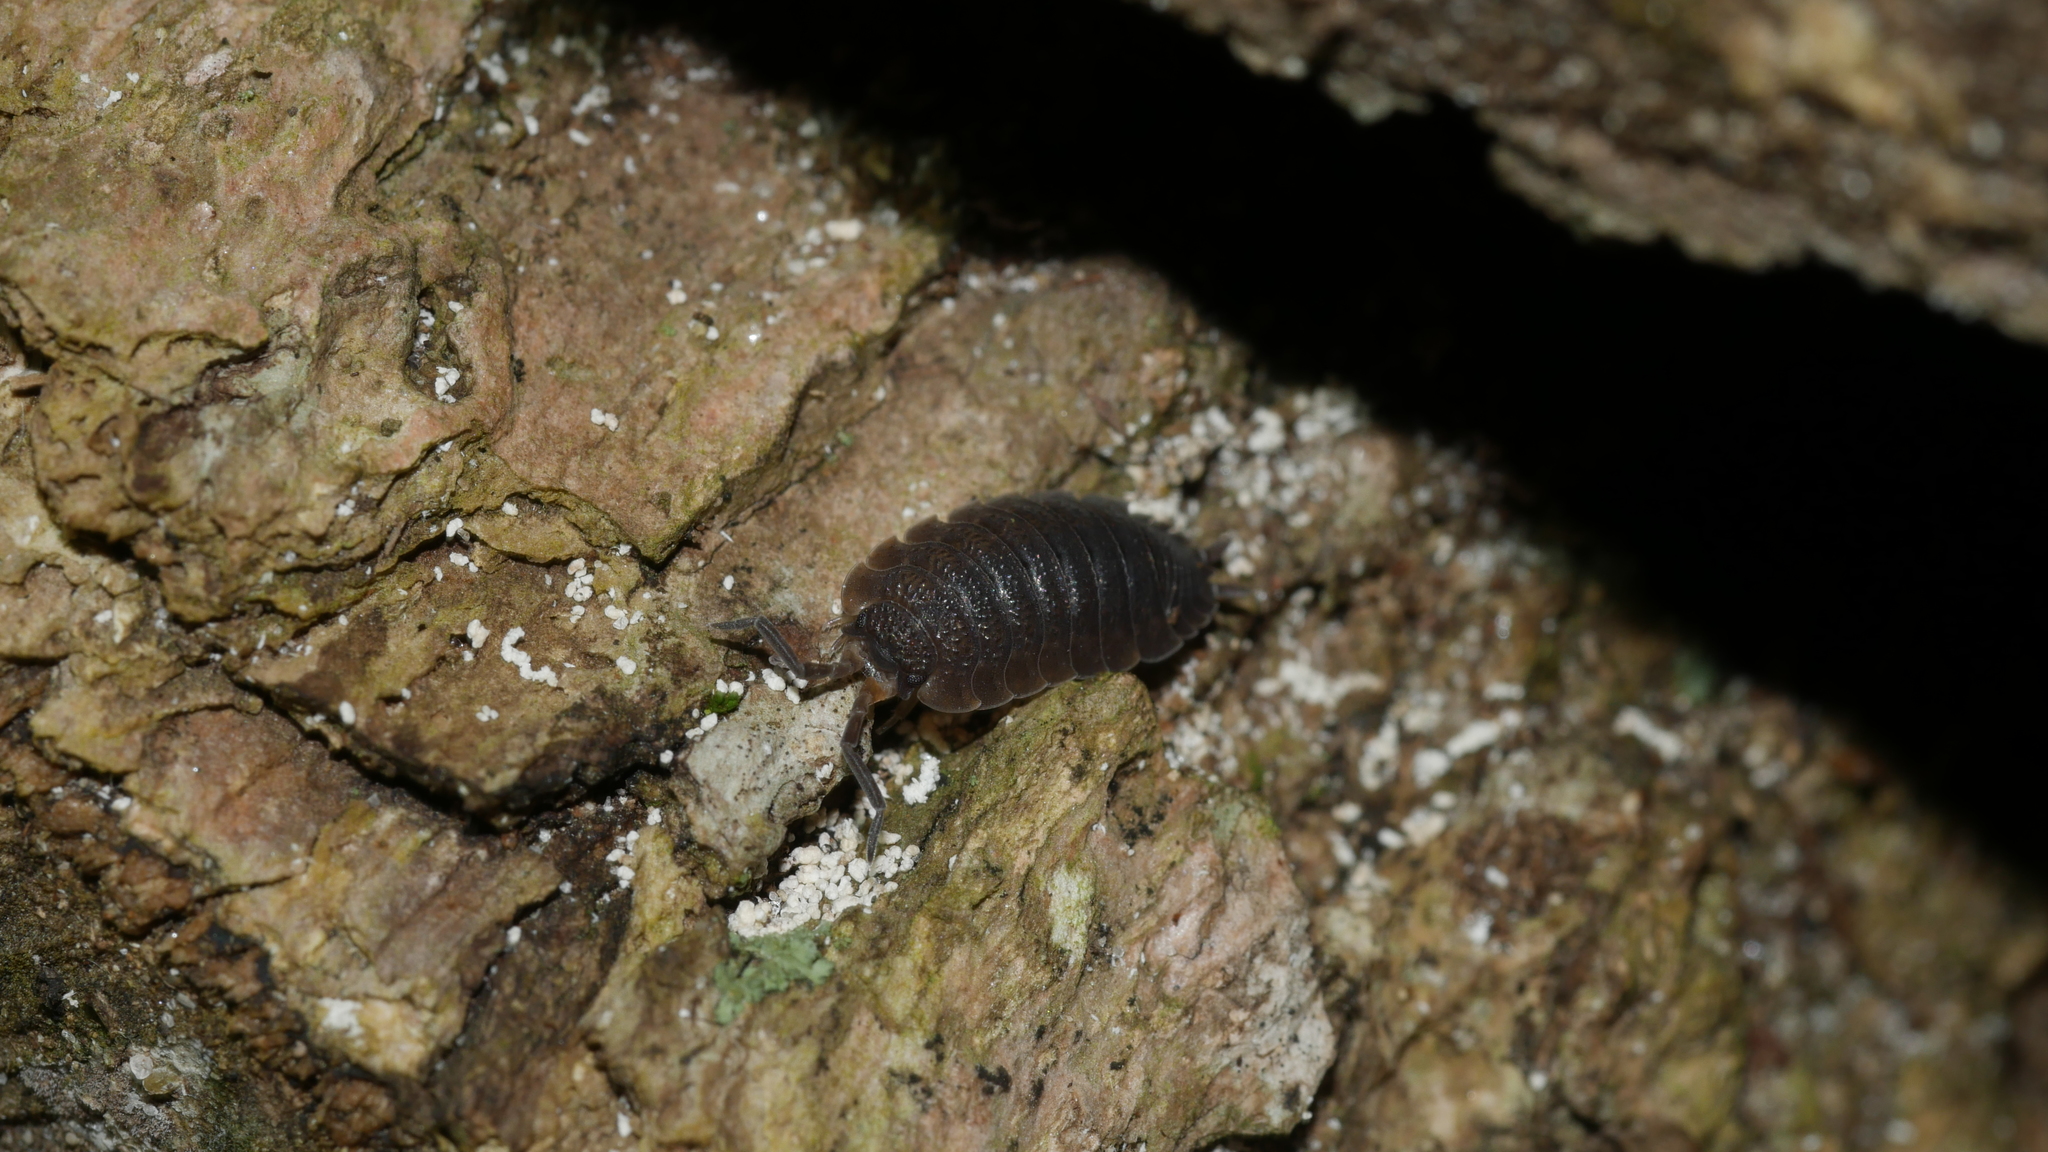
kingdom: Animalia
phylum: Arthropoda
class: Malacostraca
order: Isopoda
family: Porcellionidae
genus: Porcellio
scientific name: Porcellio scaber
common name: Common rough woodlouse
